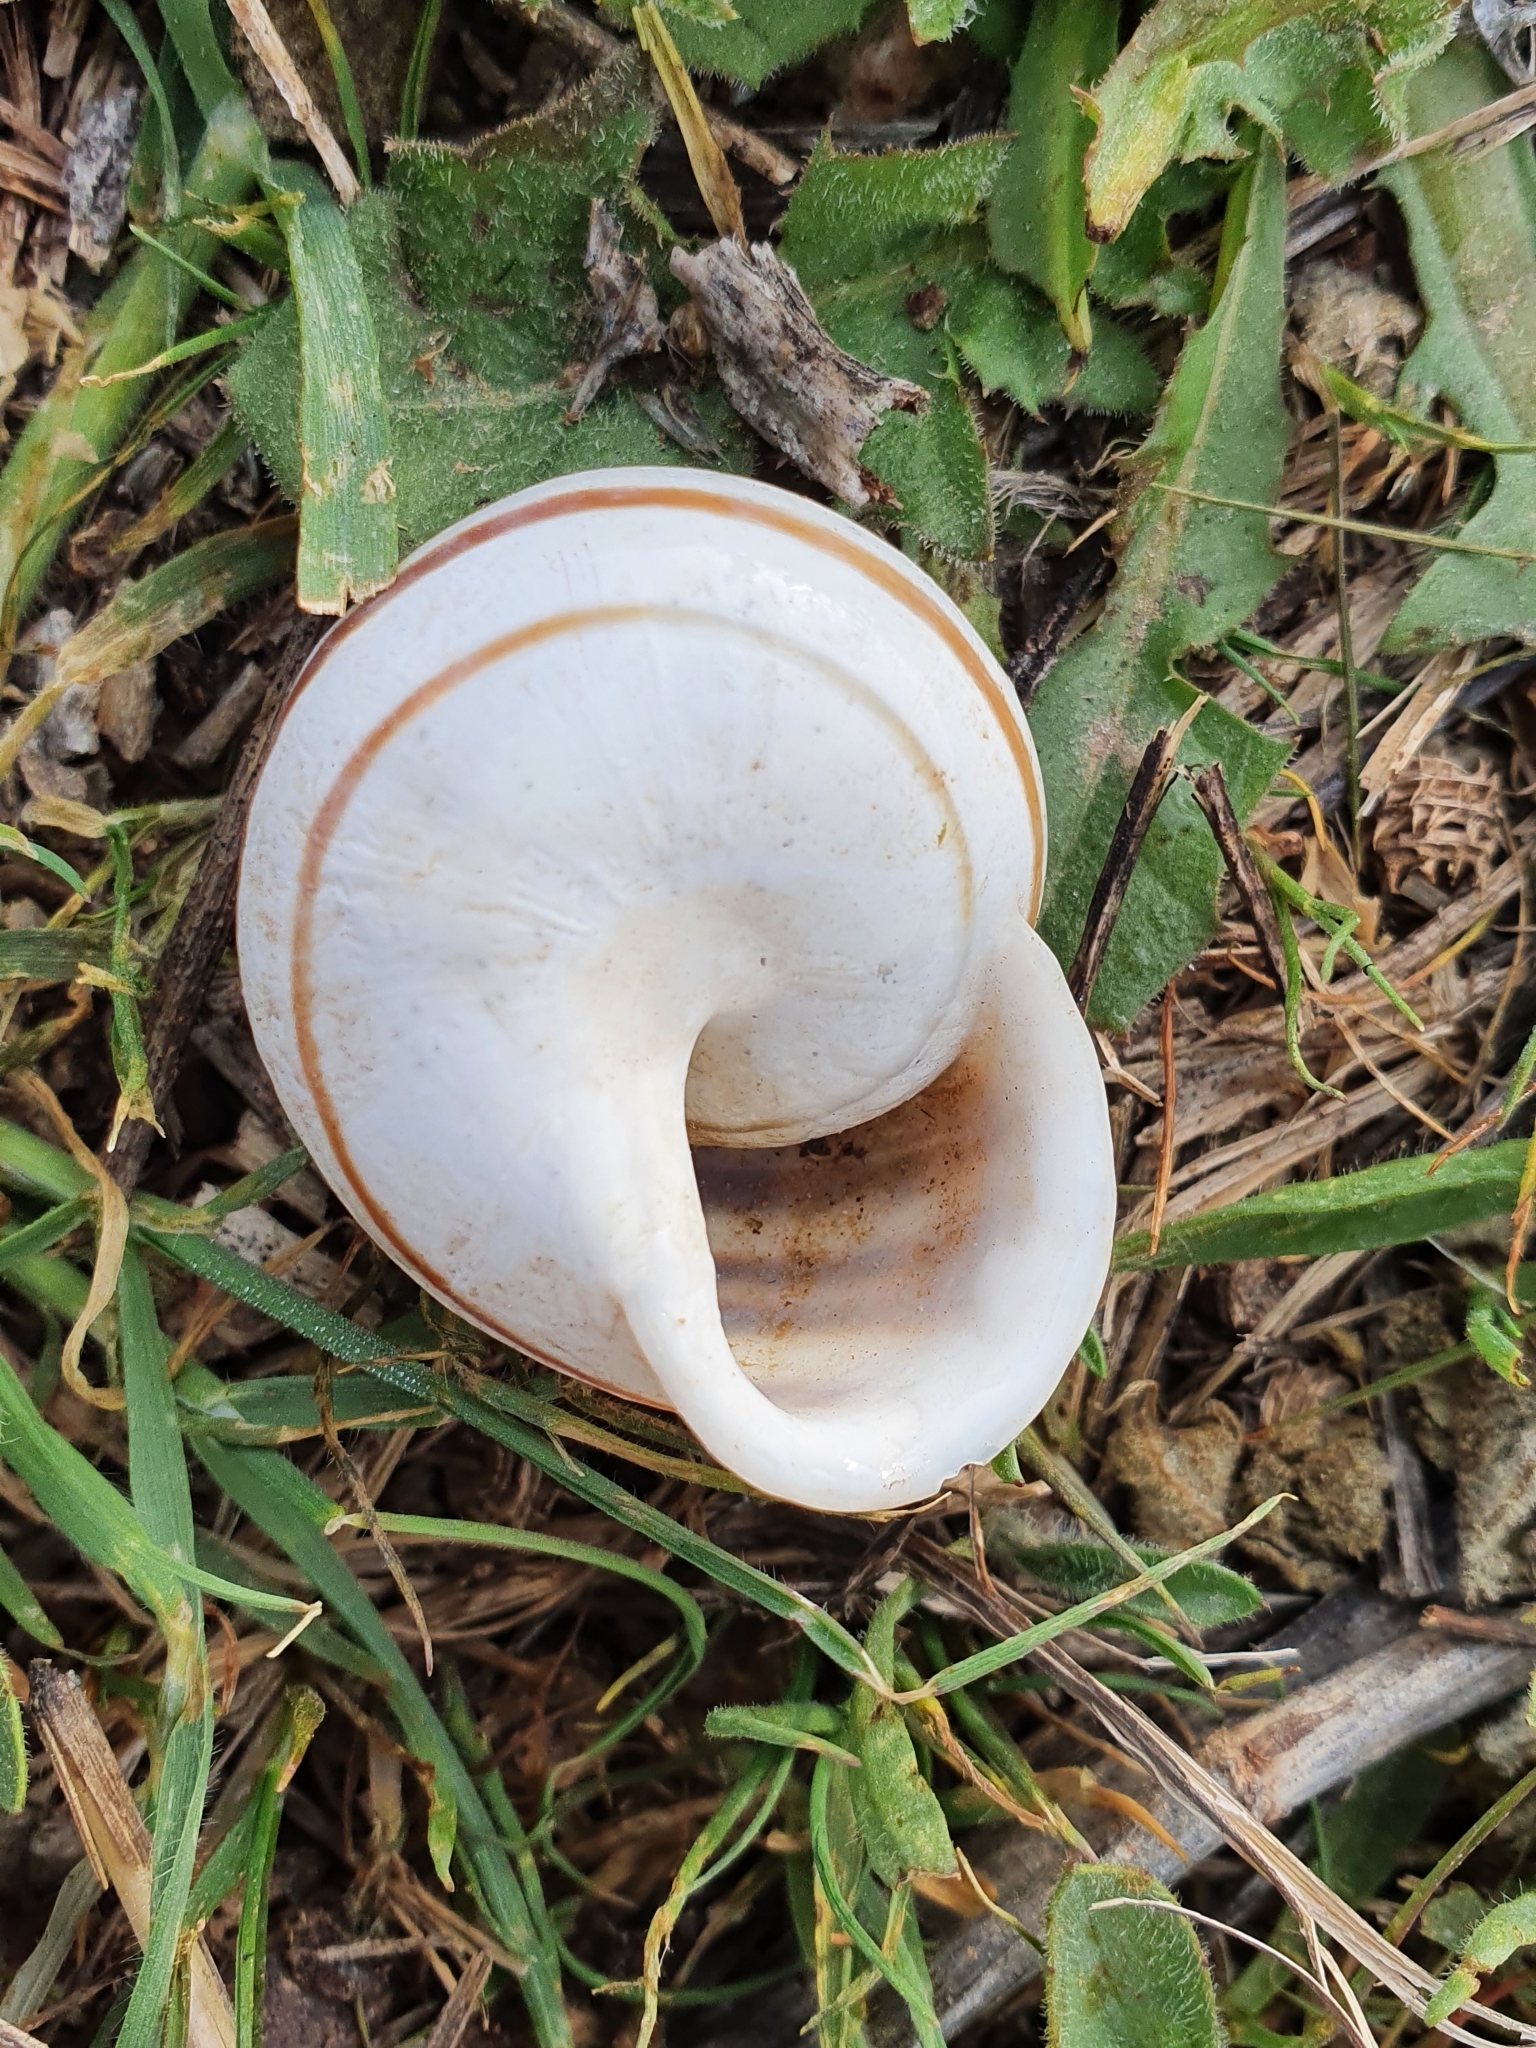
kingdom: Animalia
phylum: Mollusca
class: Gastropoda
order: Stylommatophora
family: Helicidae
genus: Eobania
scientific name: Eobania vermiculata
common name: Chocolateband snail
